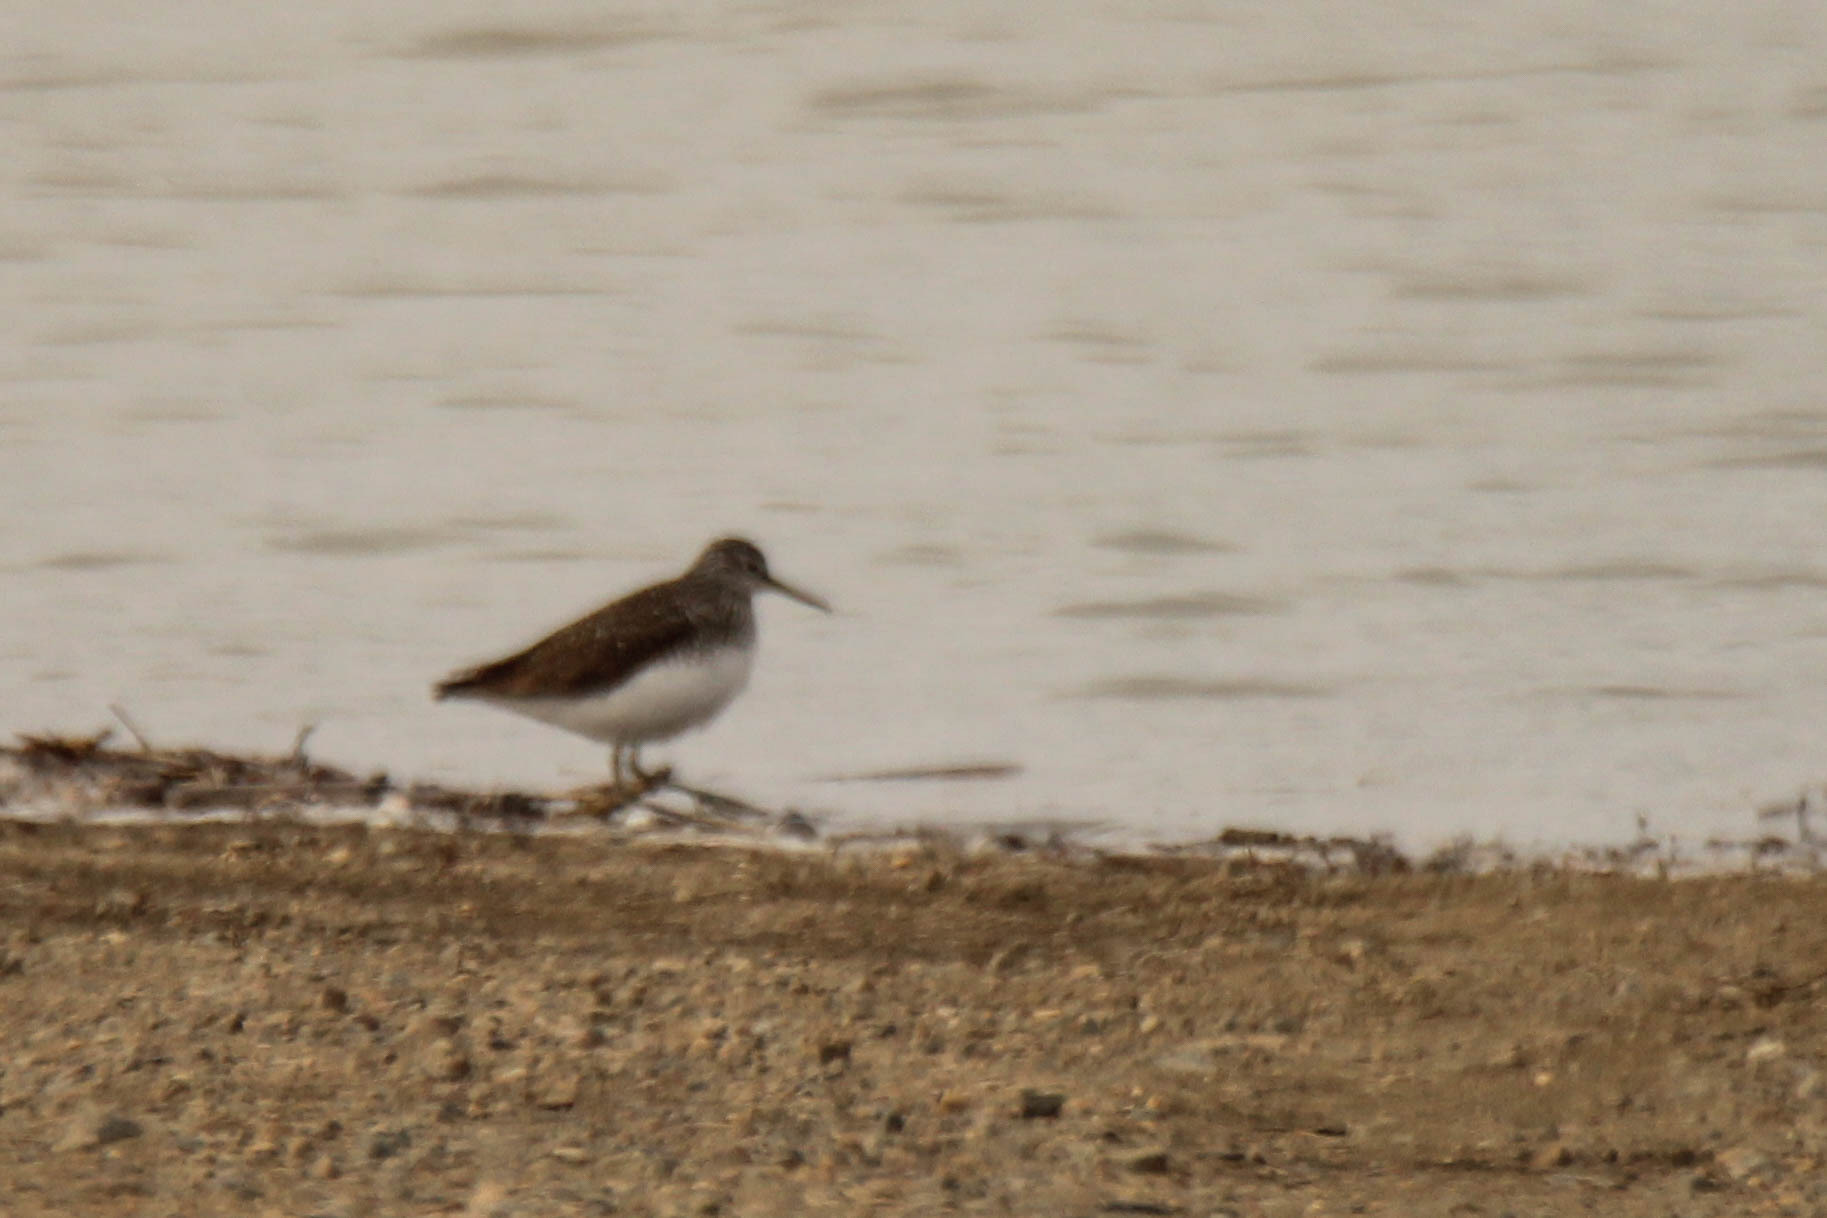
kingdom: Animalia
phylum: Chordata
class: Aves
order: Charadriiformes
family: Scolopacidae
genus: Tringa
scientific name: Tringa ochropus
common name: Green sandpiper
